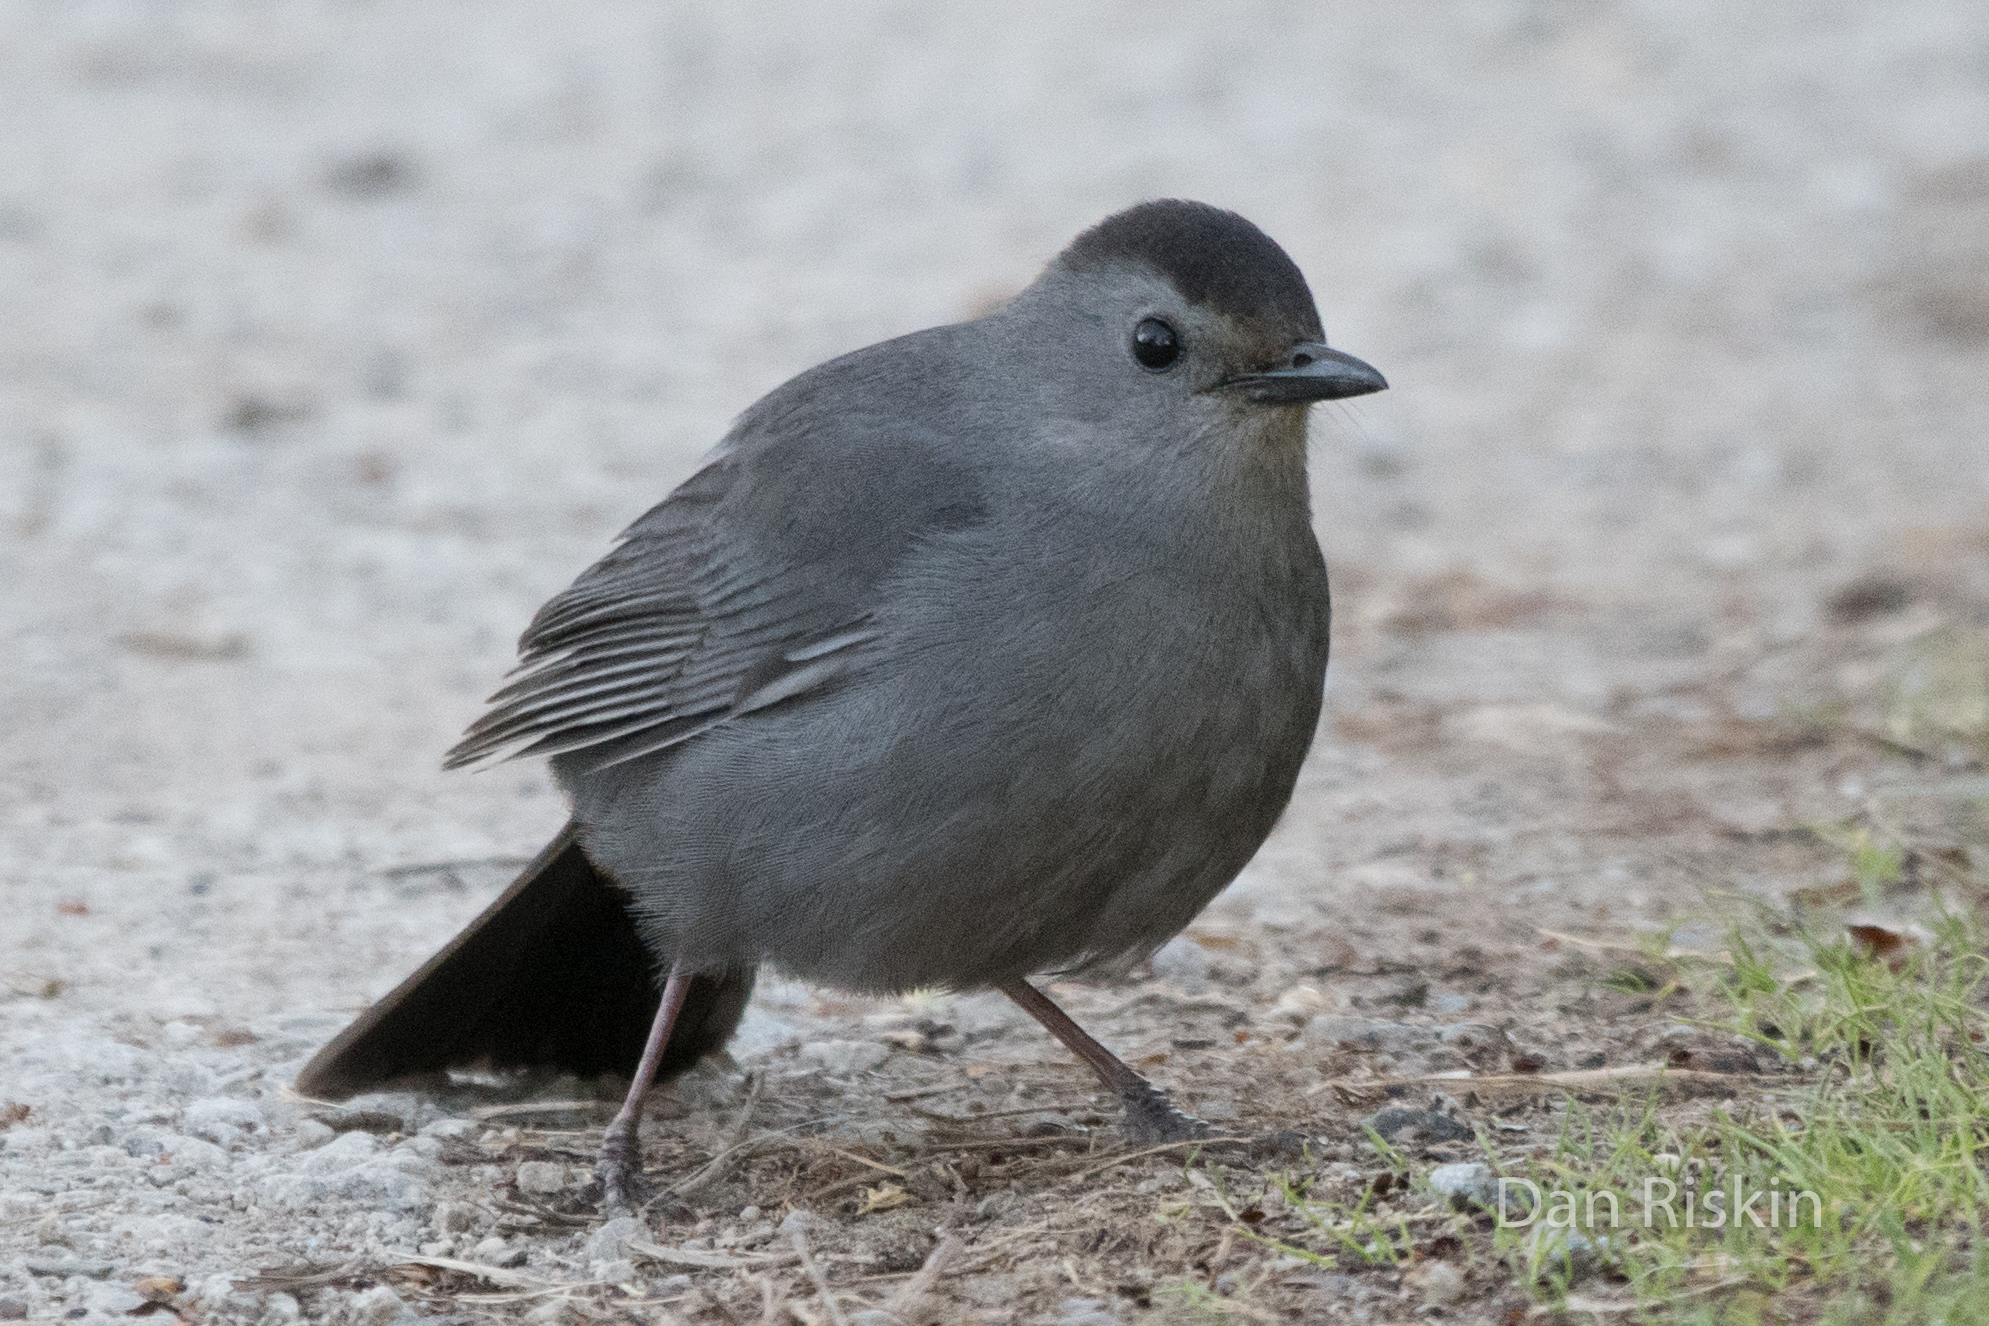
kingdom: Animalia
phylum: Chordata
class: Aves
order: Passeriformes
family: Mimidae
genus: Dumetella
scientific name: Dumetella carolinensis
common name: Gray catbird
